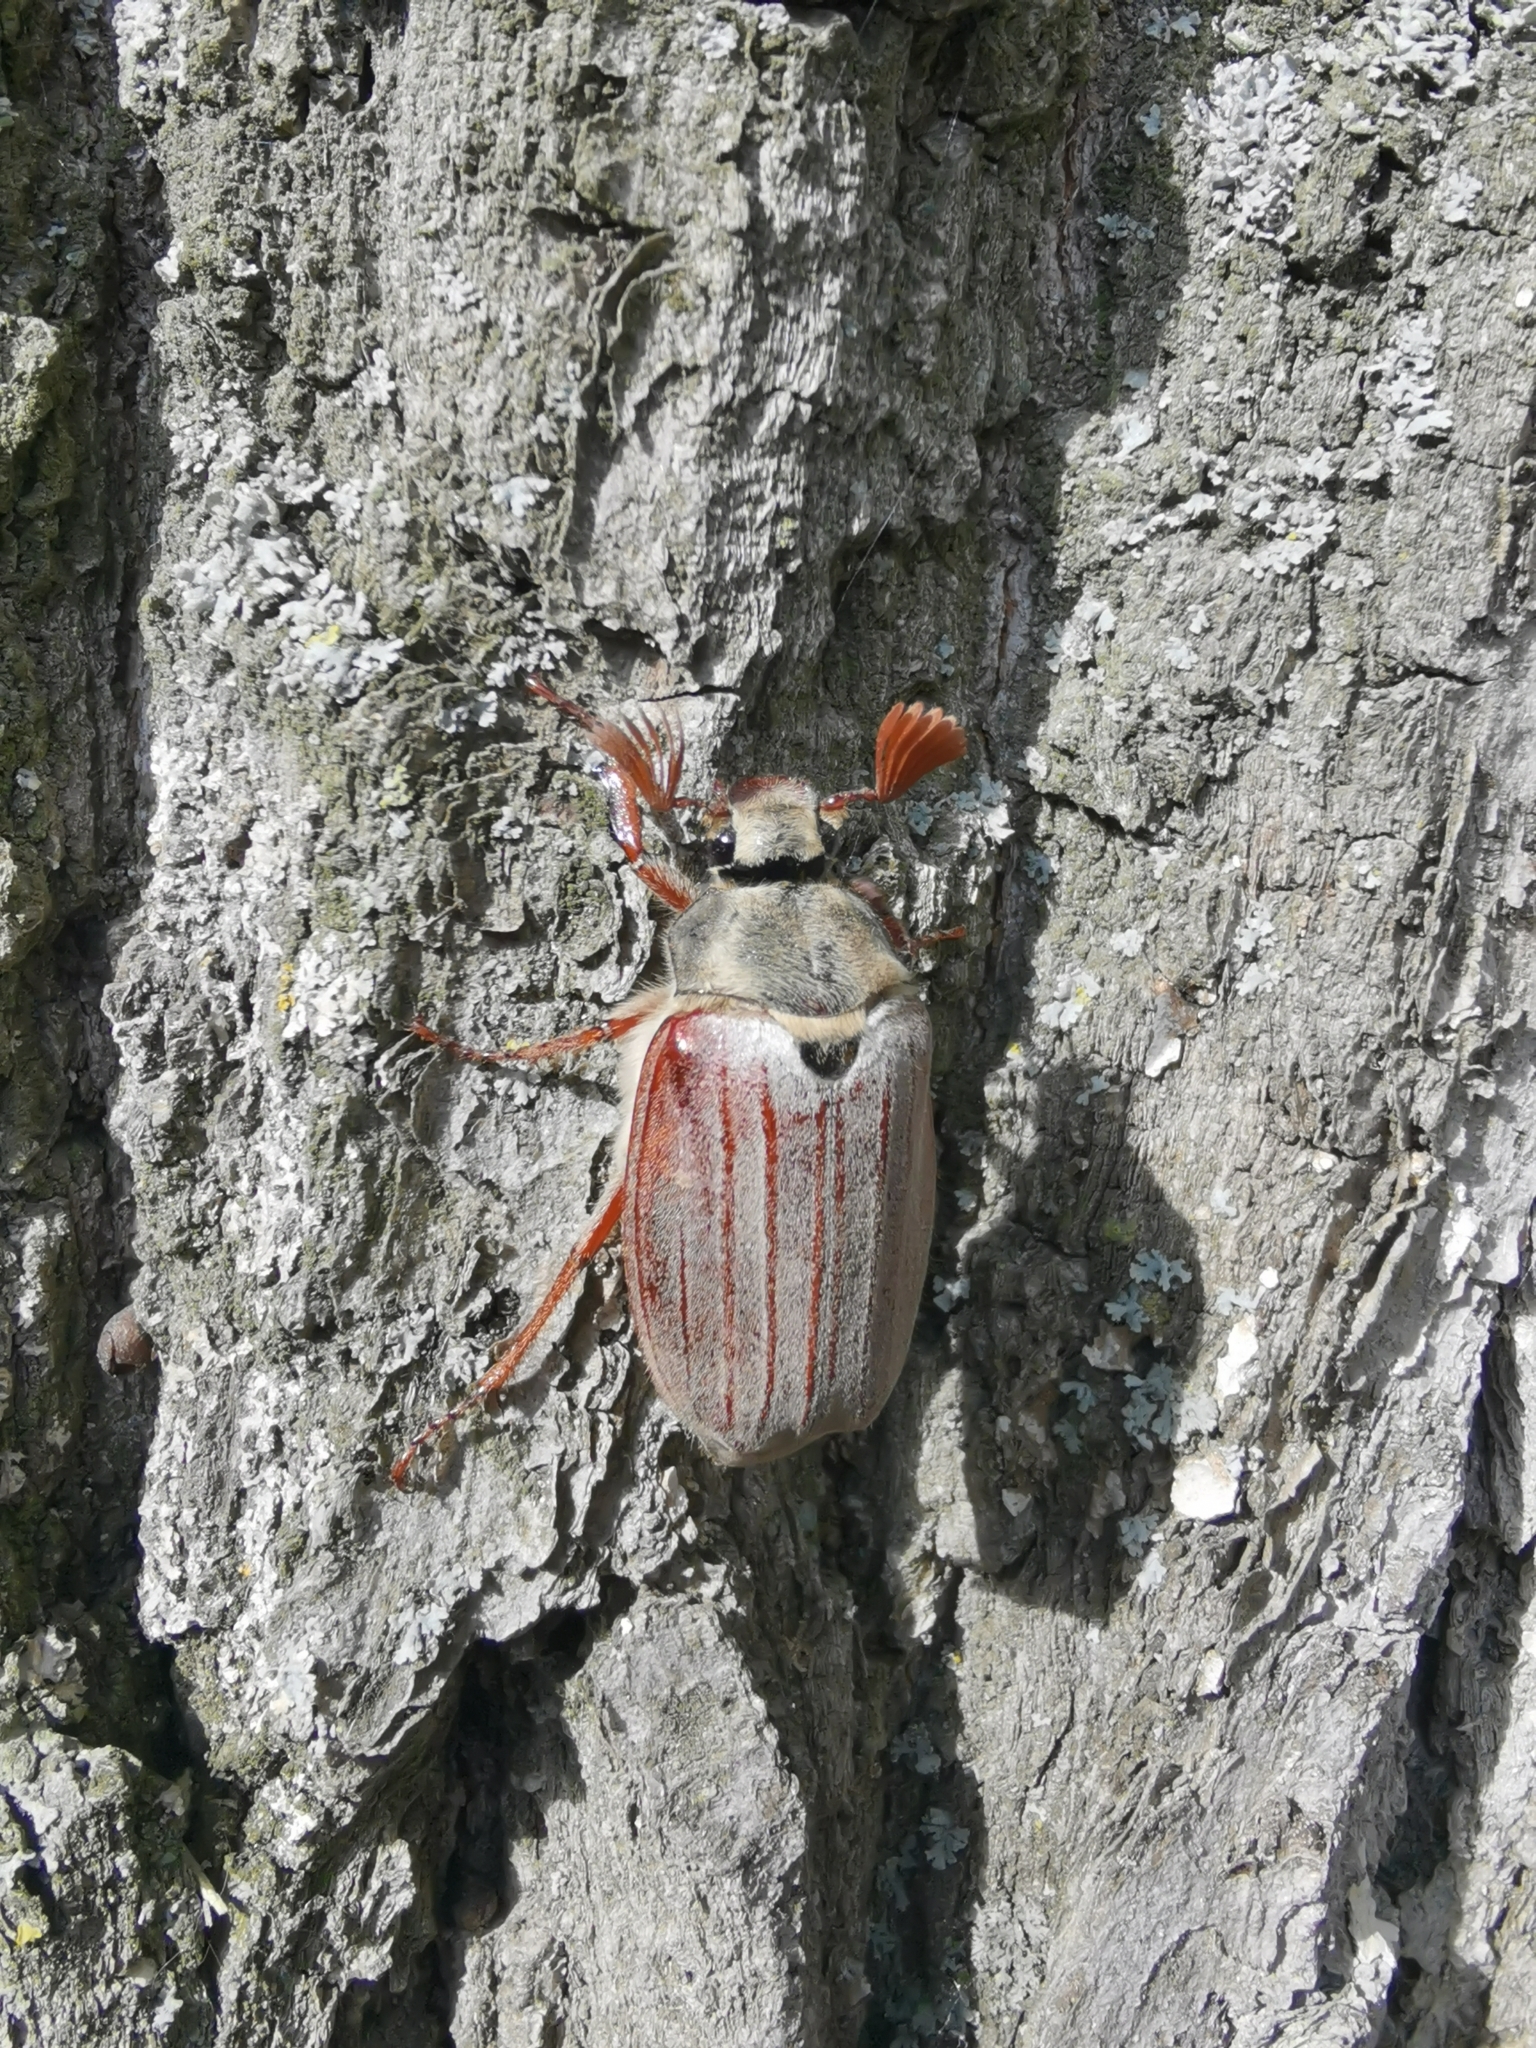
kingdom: Animalia
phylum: Arthropoda
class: Insecta
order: Coleoptera
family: Scarabaeidae
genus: Melolontha
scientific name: Melolontha melolontha
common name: Cockchafer maybeetle
